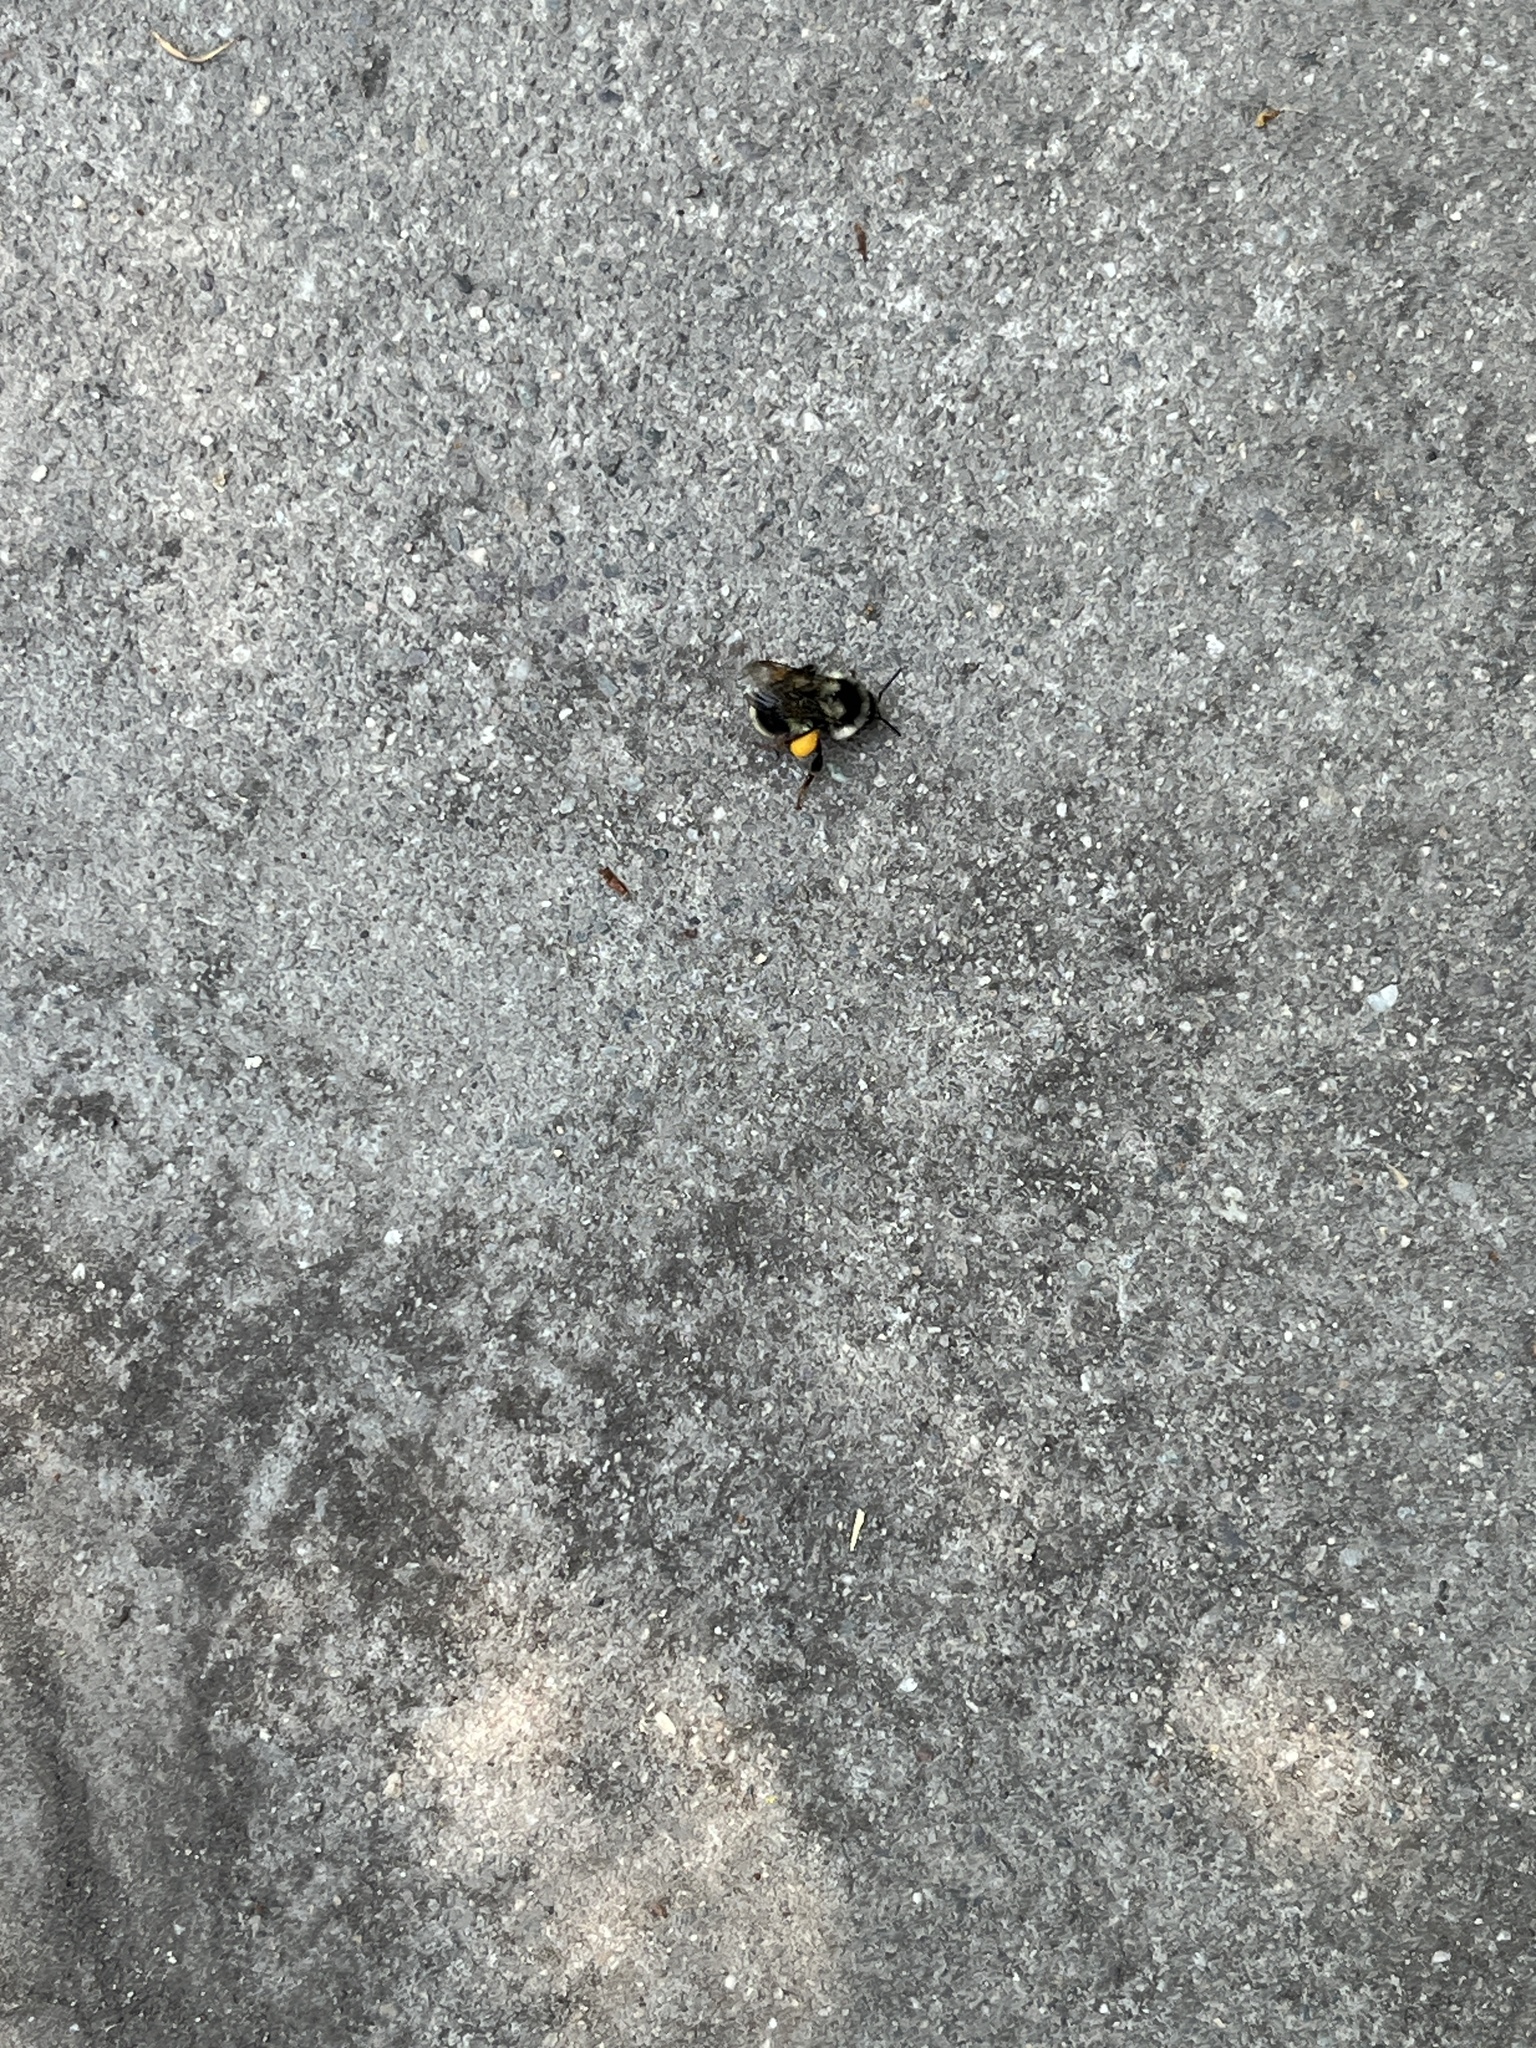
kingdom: Animalia
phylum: Arthropoda
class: Insecta
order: Hymenoptera
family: Apidae
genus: Bombus
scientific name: Bombus vancouverensis
